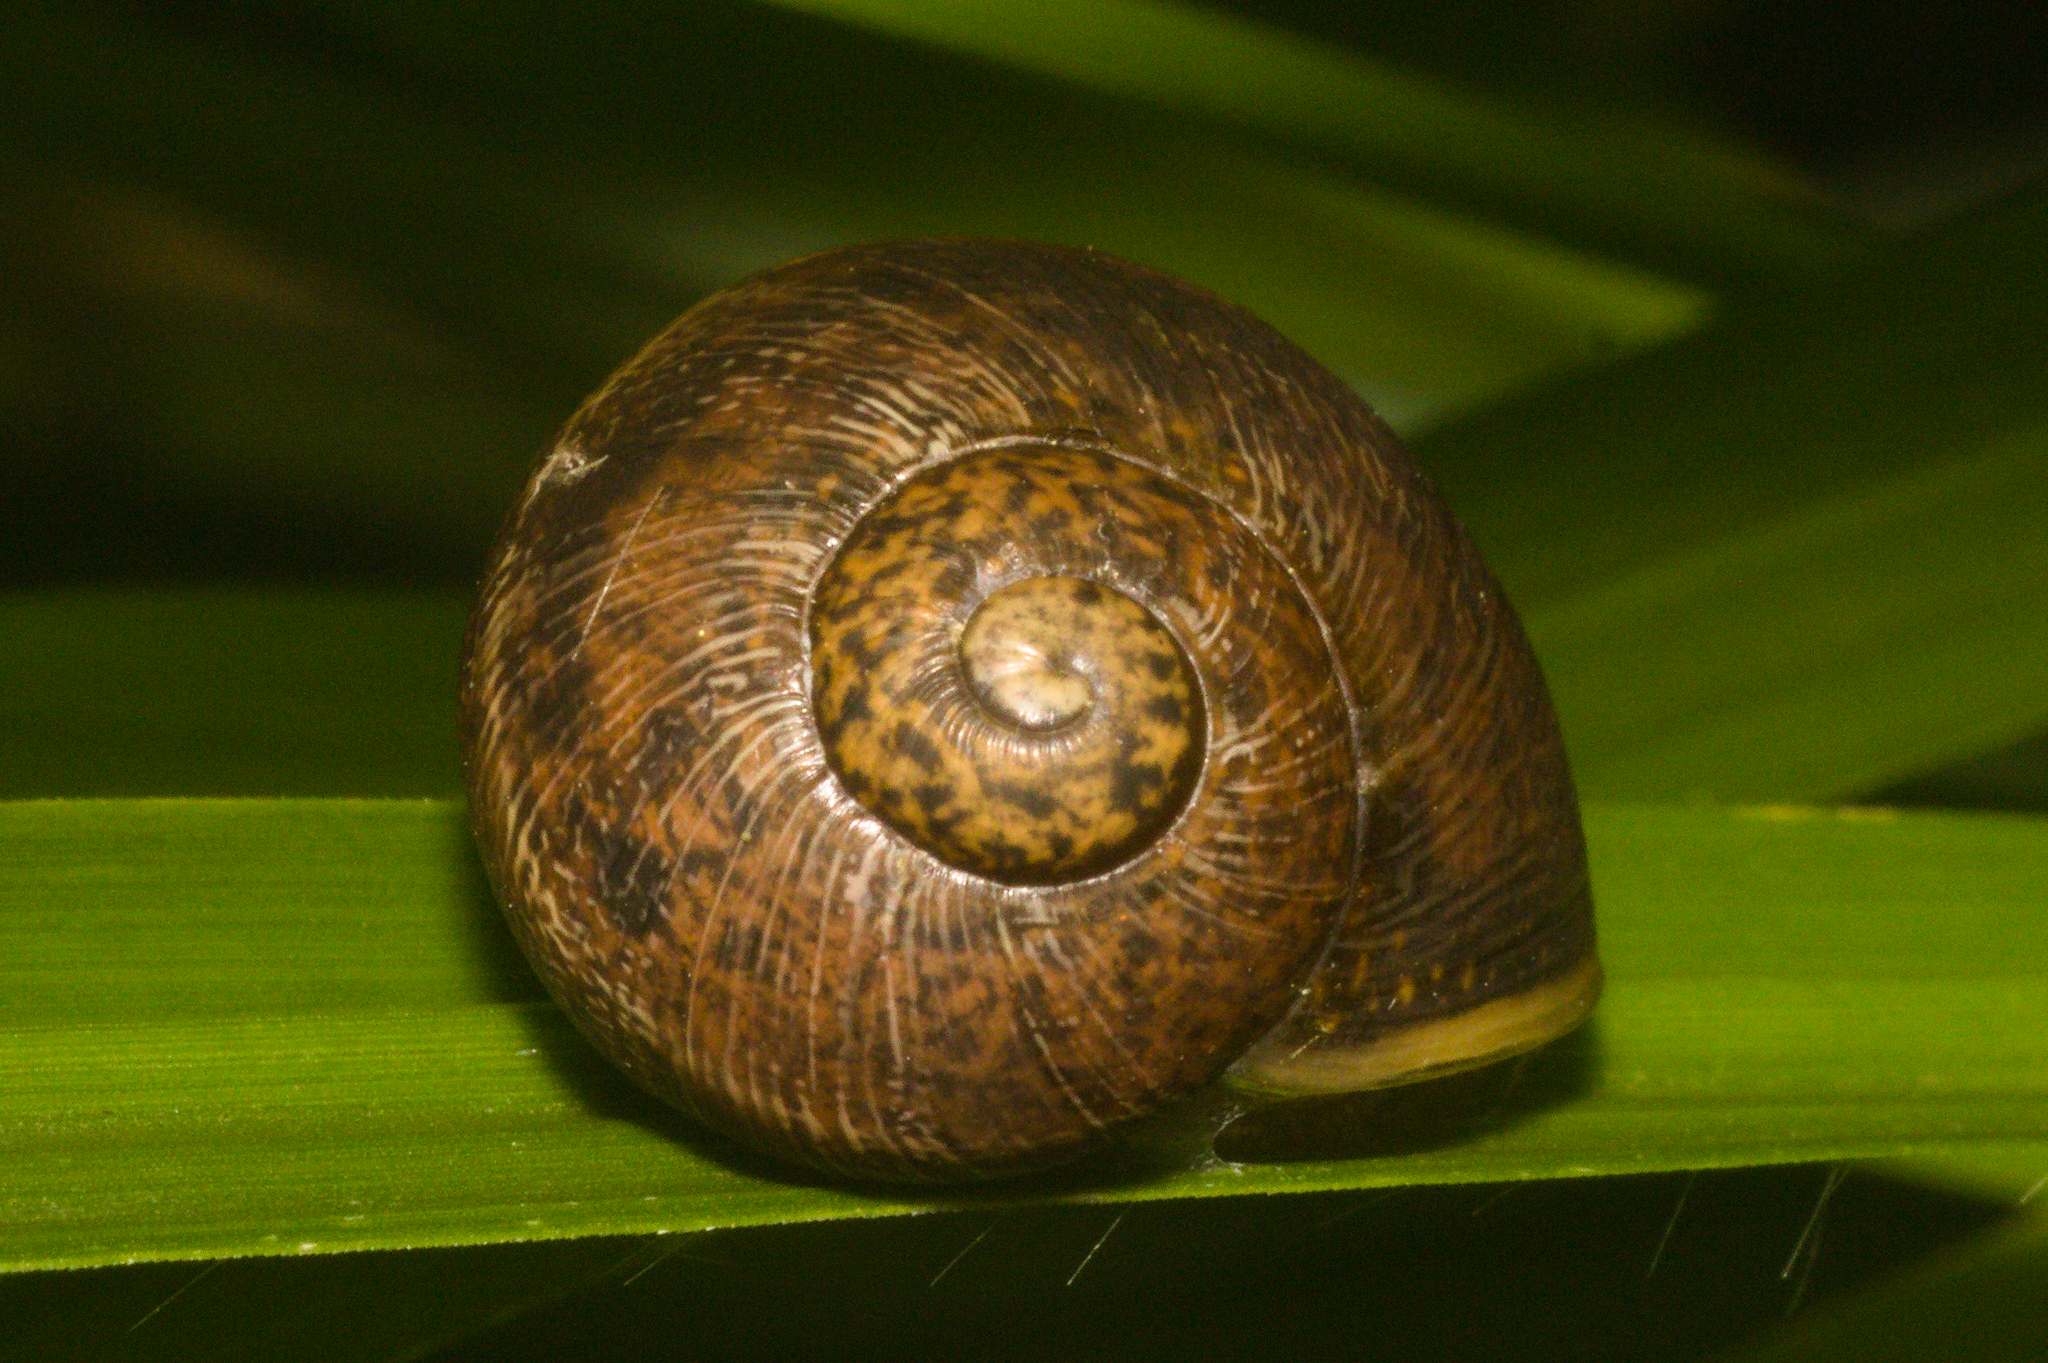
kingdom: Animalia
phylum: Mollusca
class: Gastropoda
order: Stylommatophora
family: Helicidae
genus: Cornu
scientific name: Cornu aspersum
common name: Brown garden snail
